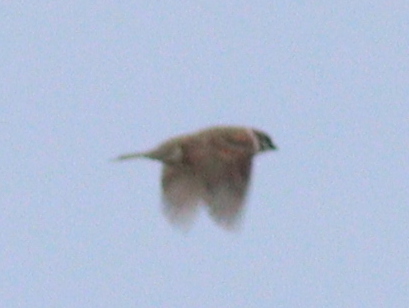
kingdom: Animalia
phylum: Chordata
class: Aves
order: Passeriformes
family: Passeridae
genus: Passer
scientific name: Passer montanus
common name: Eurasian tree sparrow
